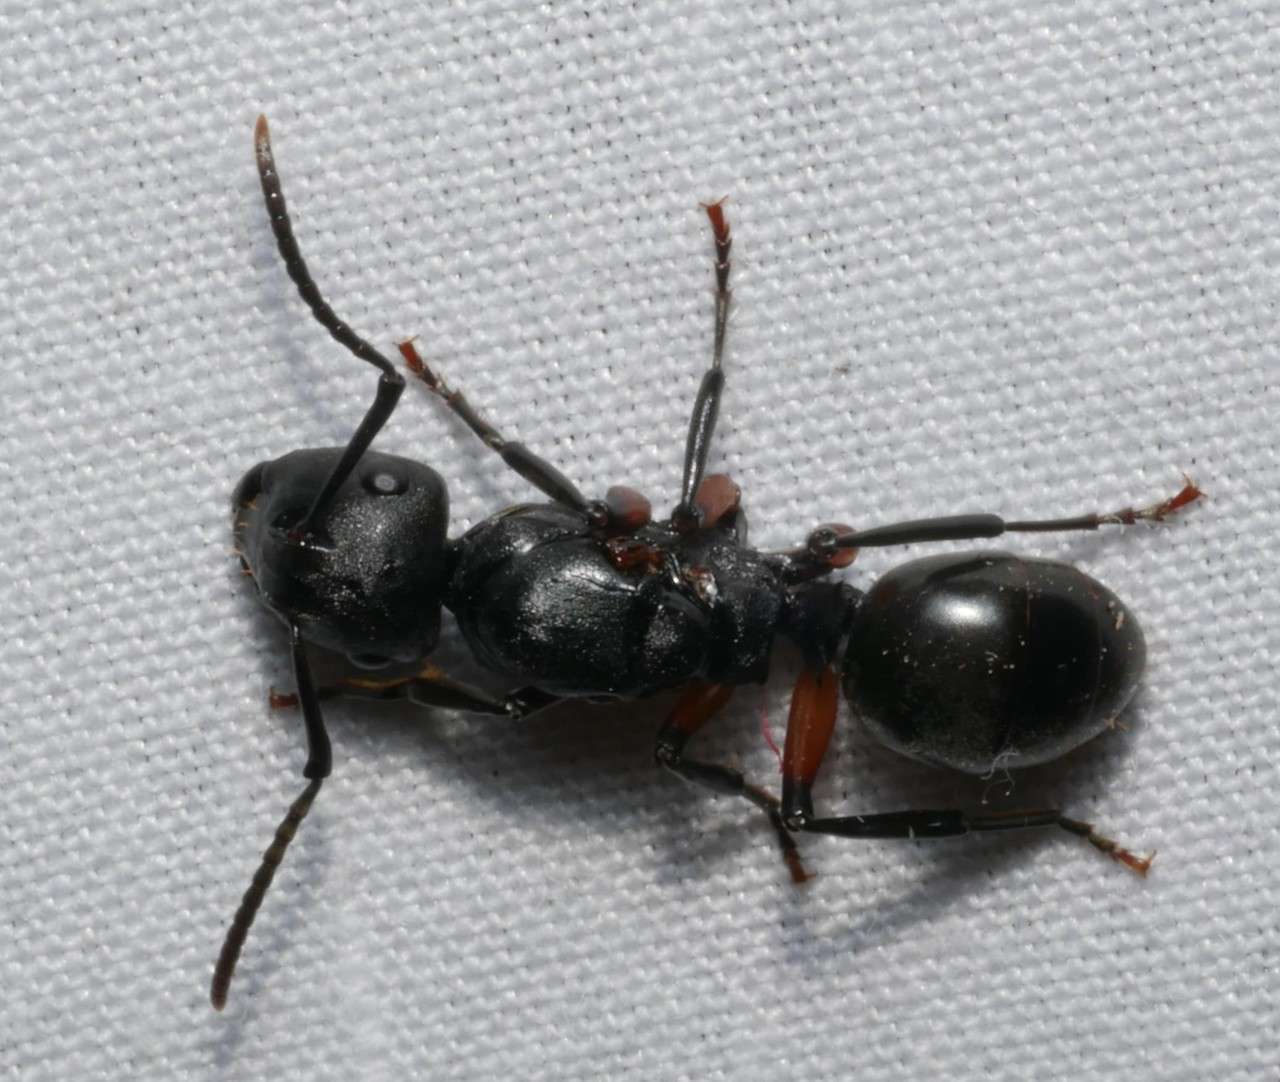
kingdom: Animalia
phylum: Arthropoda
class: Insecta
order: Hymenoptera
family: Formicidae
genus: Polyrhachis
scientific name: Polyrhachis femorata
